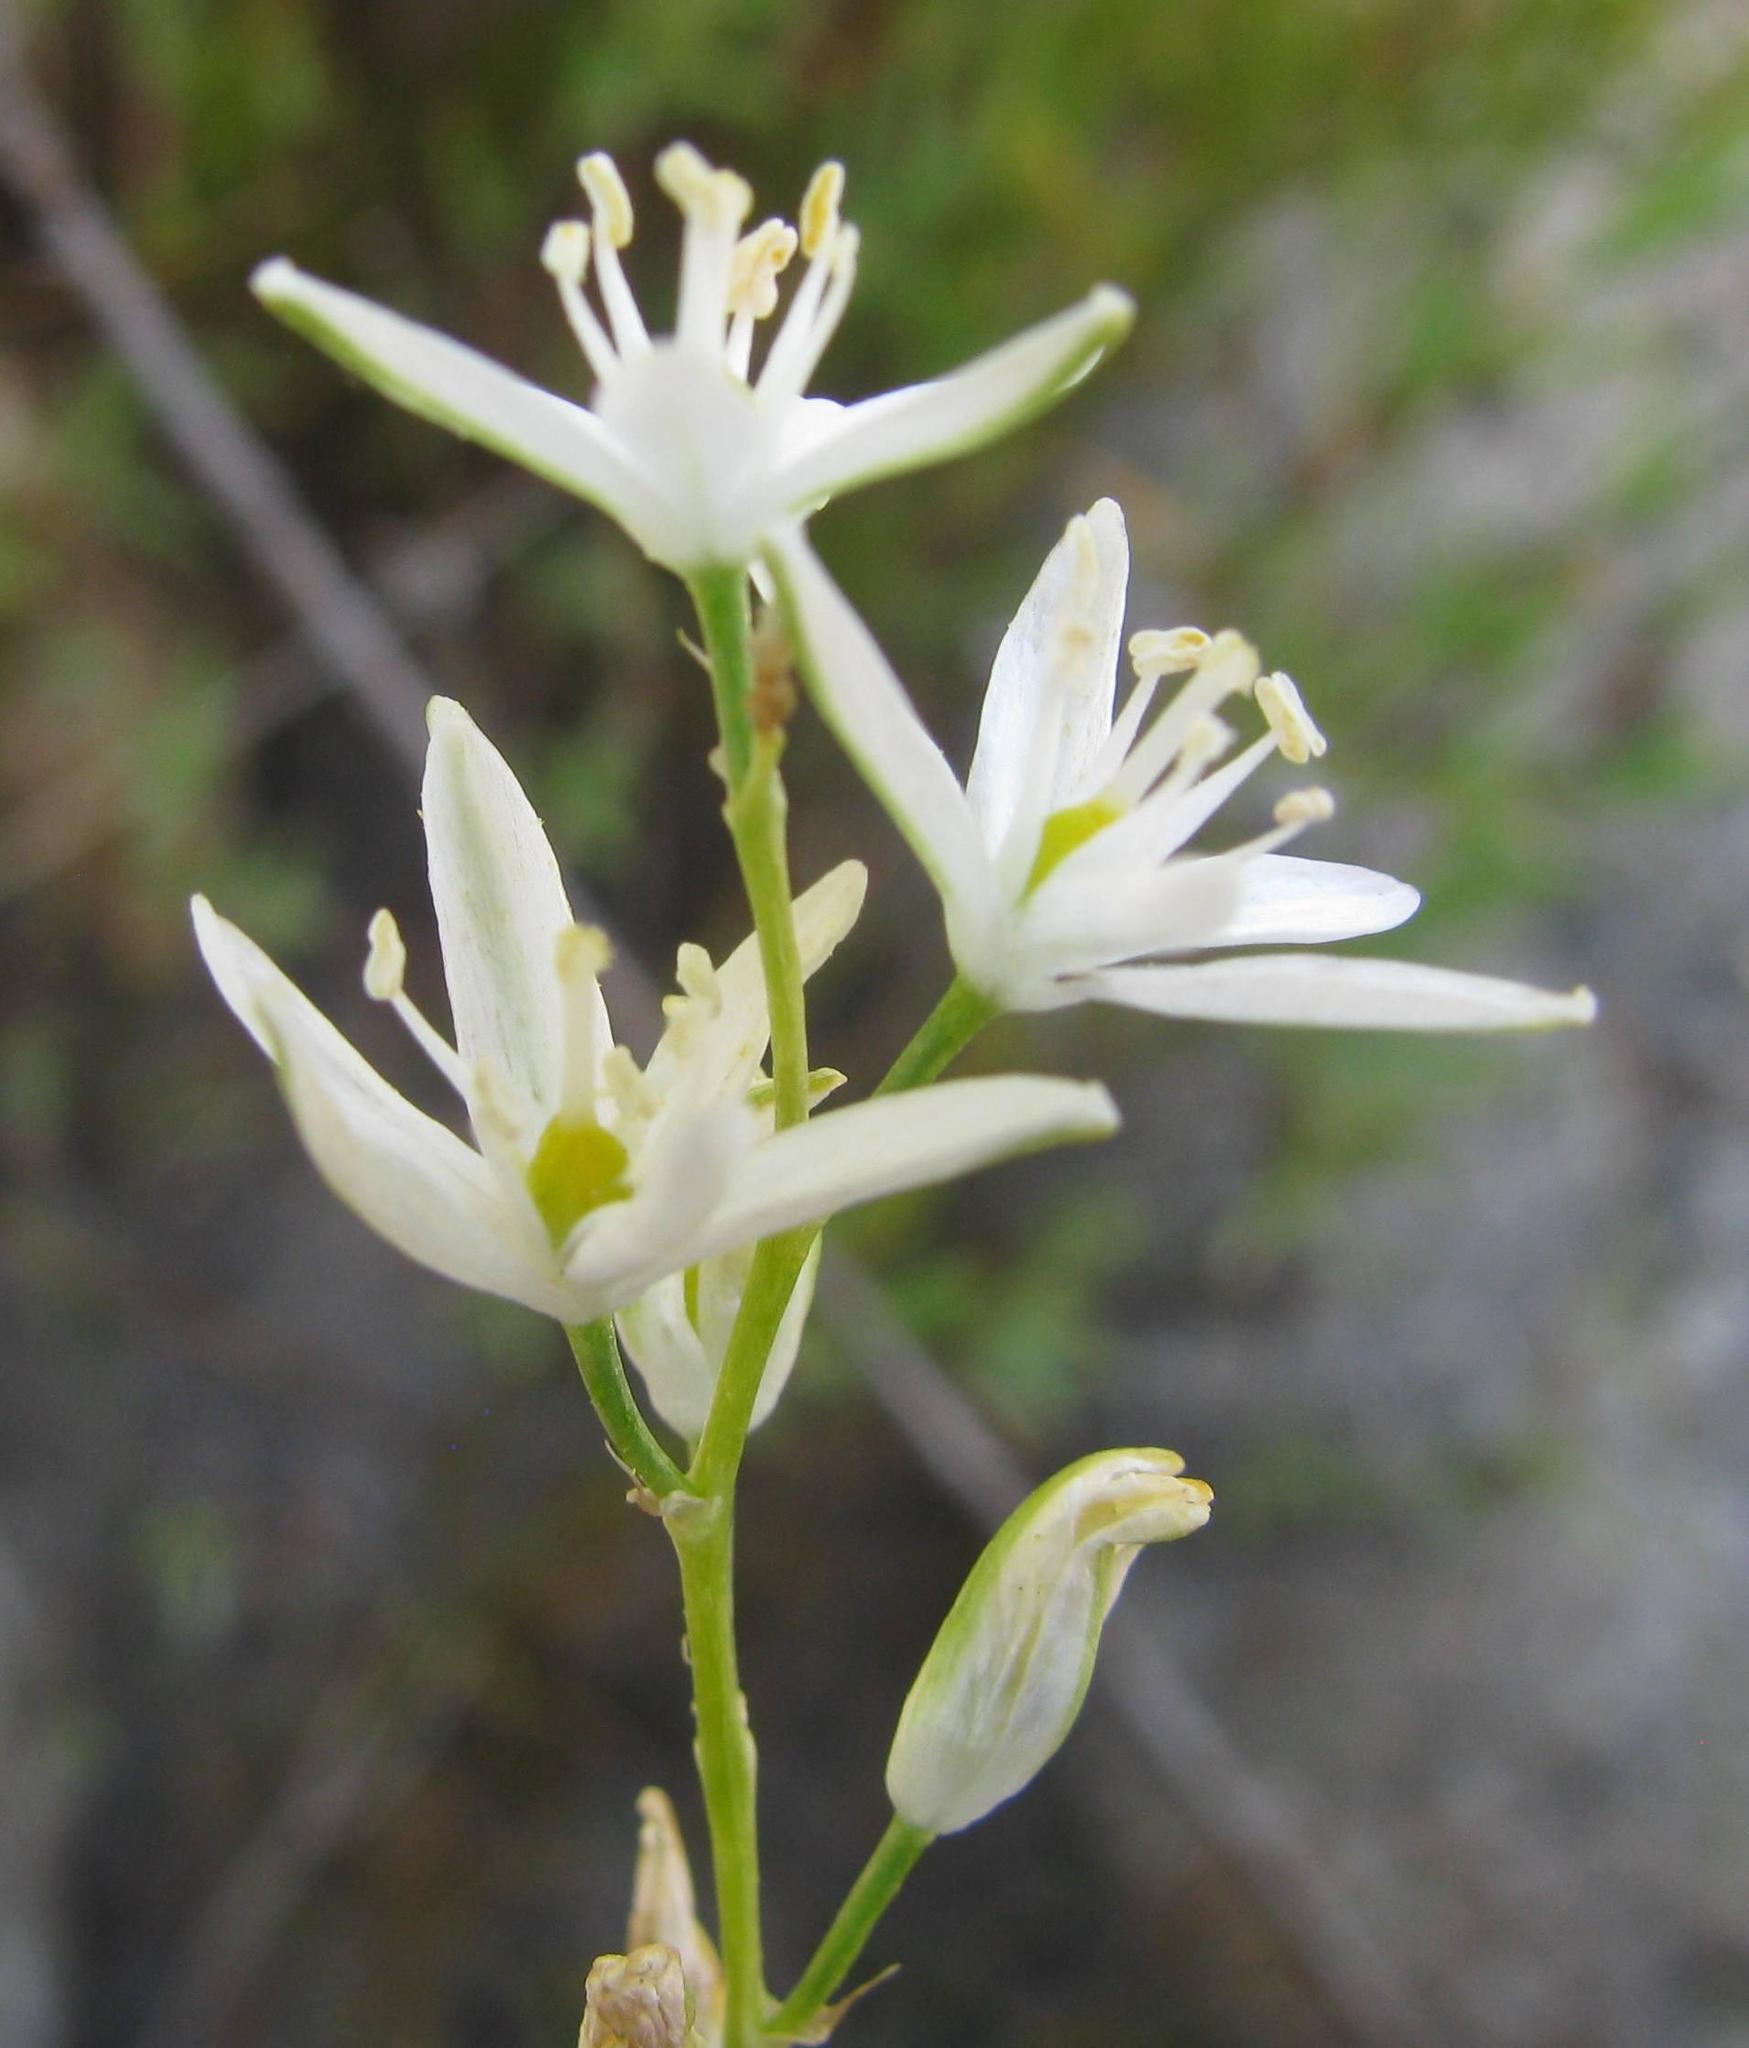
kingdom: Plantae
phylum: Tracheophyta
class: Liliopsida
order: Asparagales
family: Asparagaceae
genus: Ornithogalum
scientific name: Ornithogalum graminifolium
